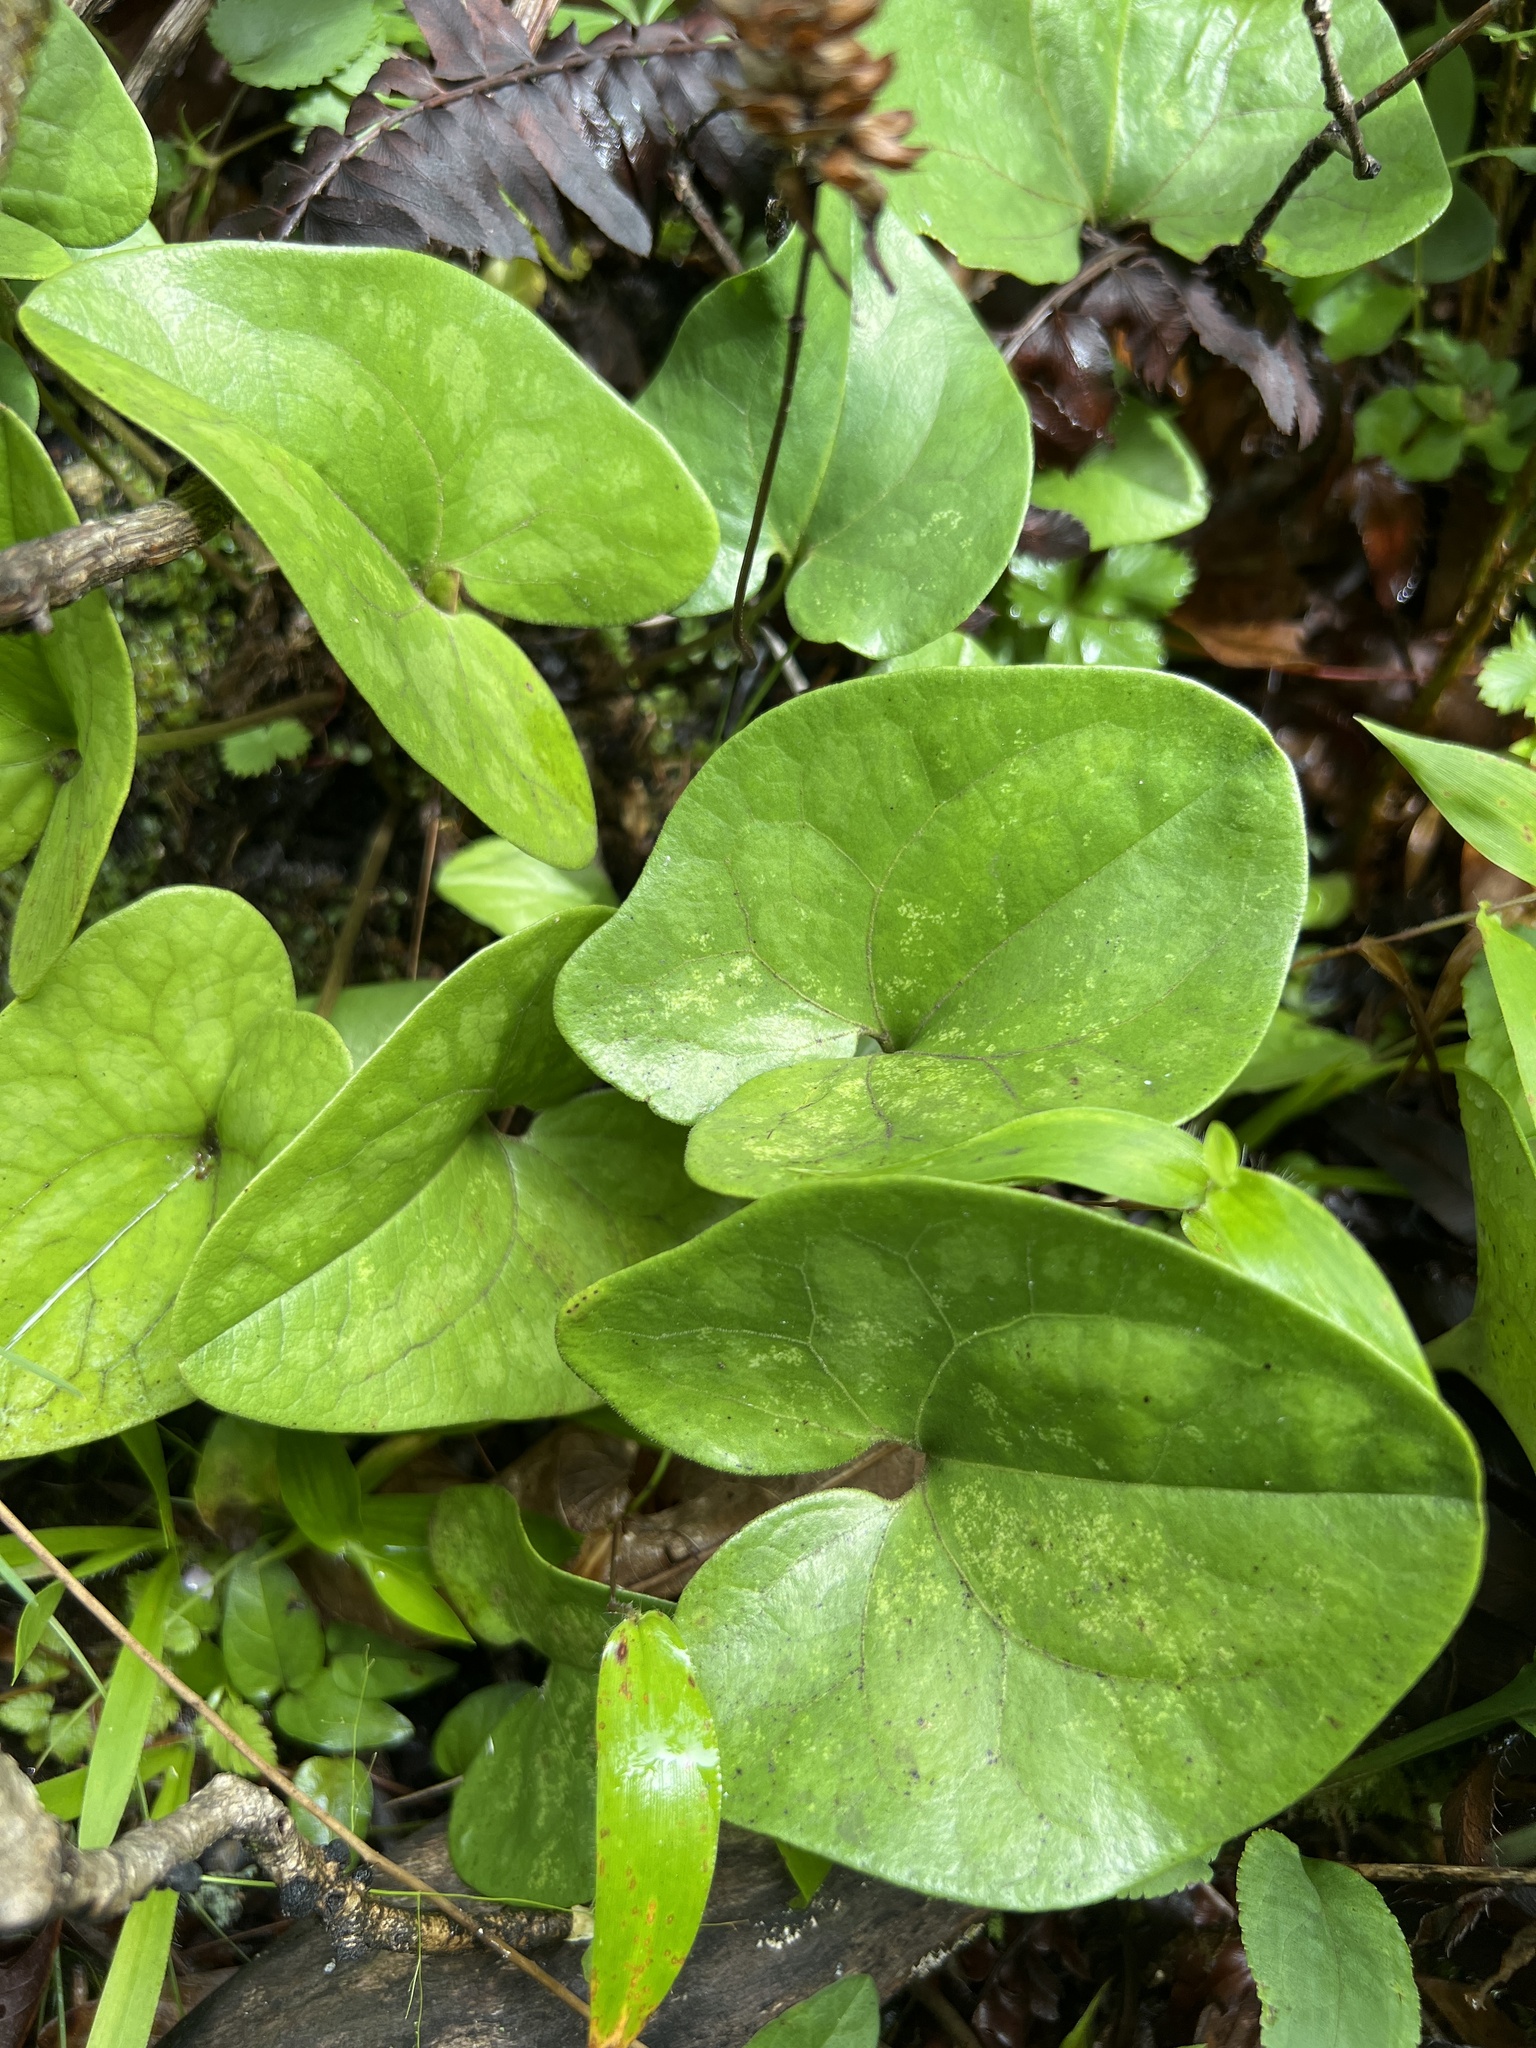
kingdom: Plantae
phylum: Tracheophyta
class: Magnoliopsida
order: Piperales
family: Aristolochiaceae
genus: Hexastylis
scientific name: Hexastylis arifolia
